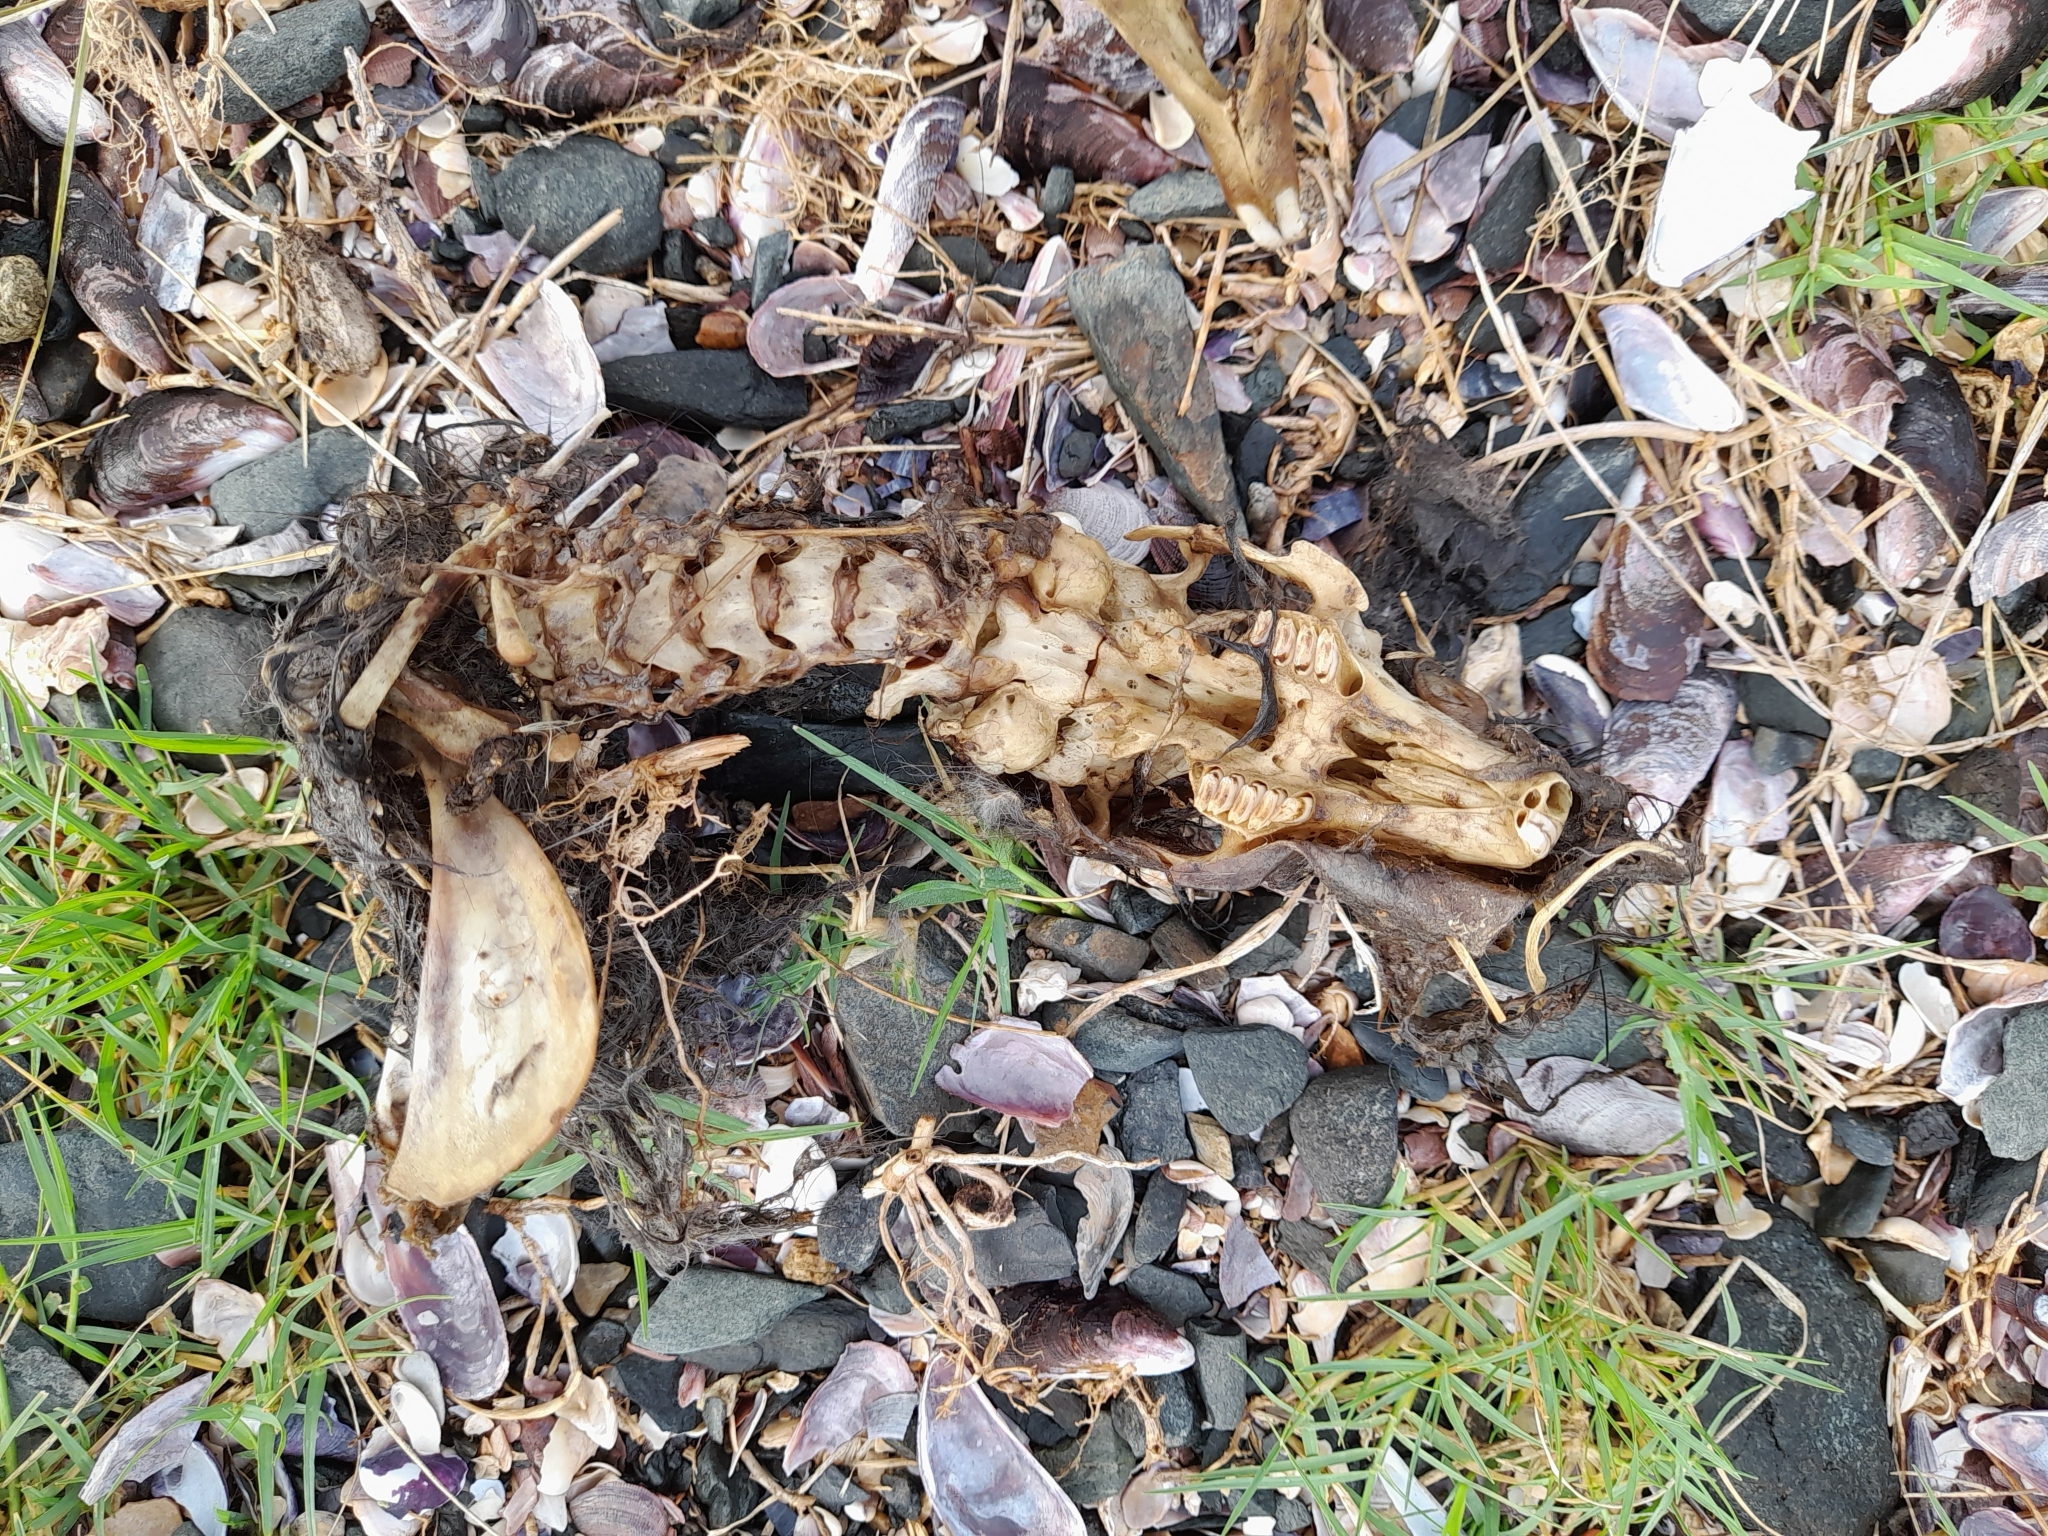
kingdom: Animalia
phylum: Chordata
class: Mammalia
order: Lagomorpha
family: Leporidae
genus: Oryctolagus
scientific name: Oryctolagus cuniculus
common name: European rabbit
